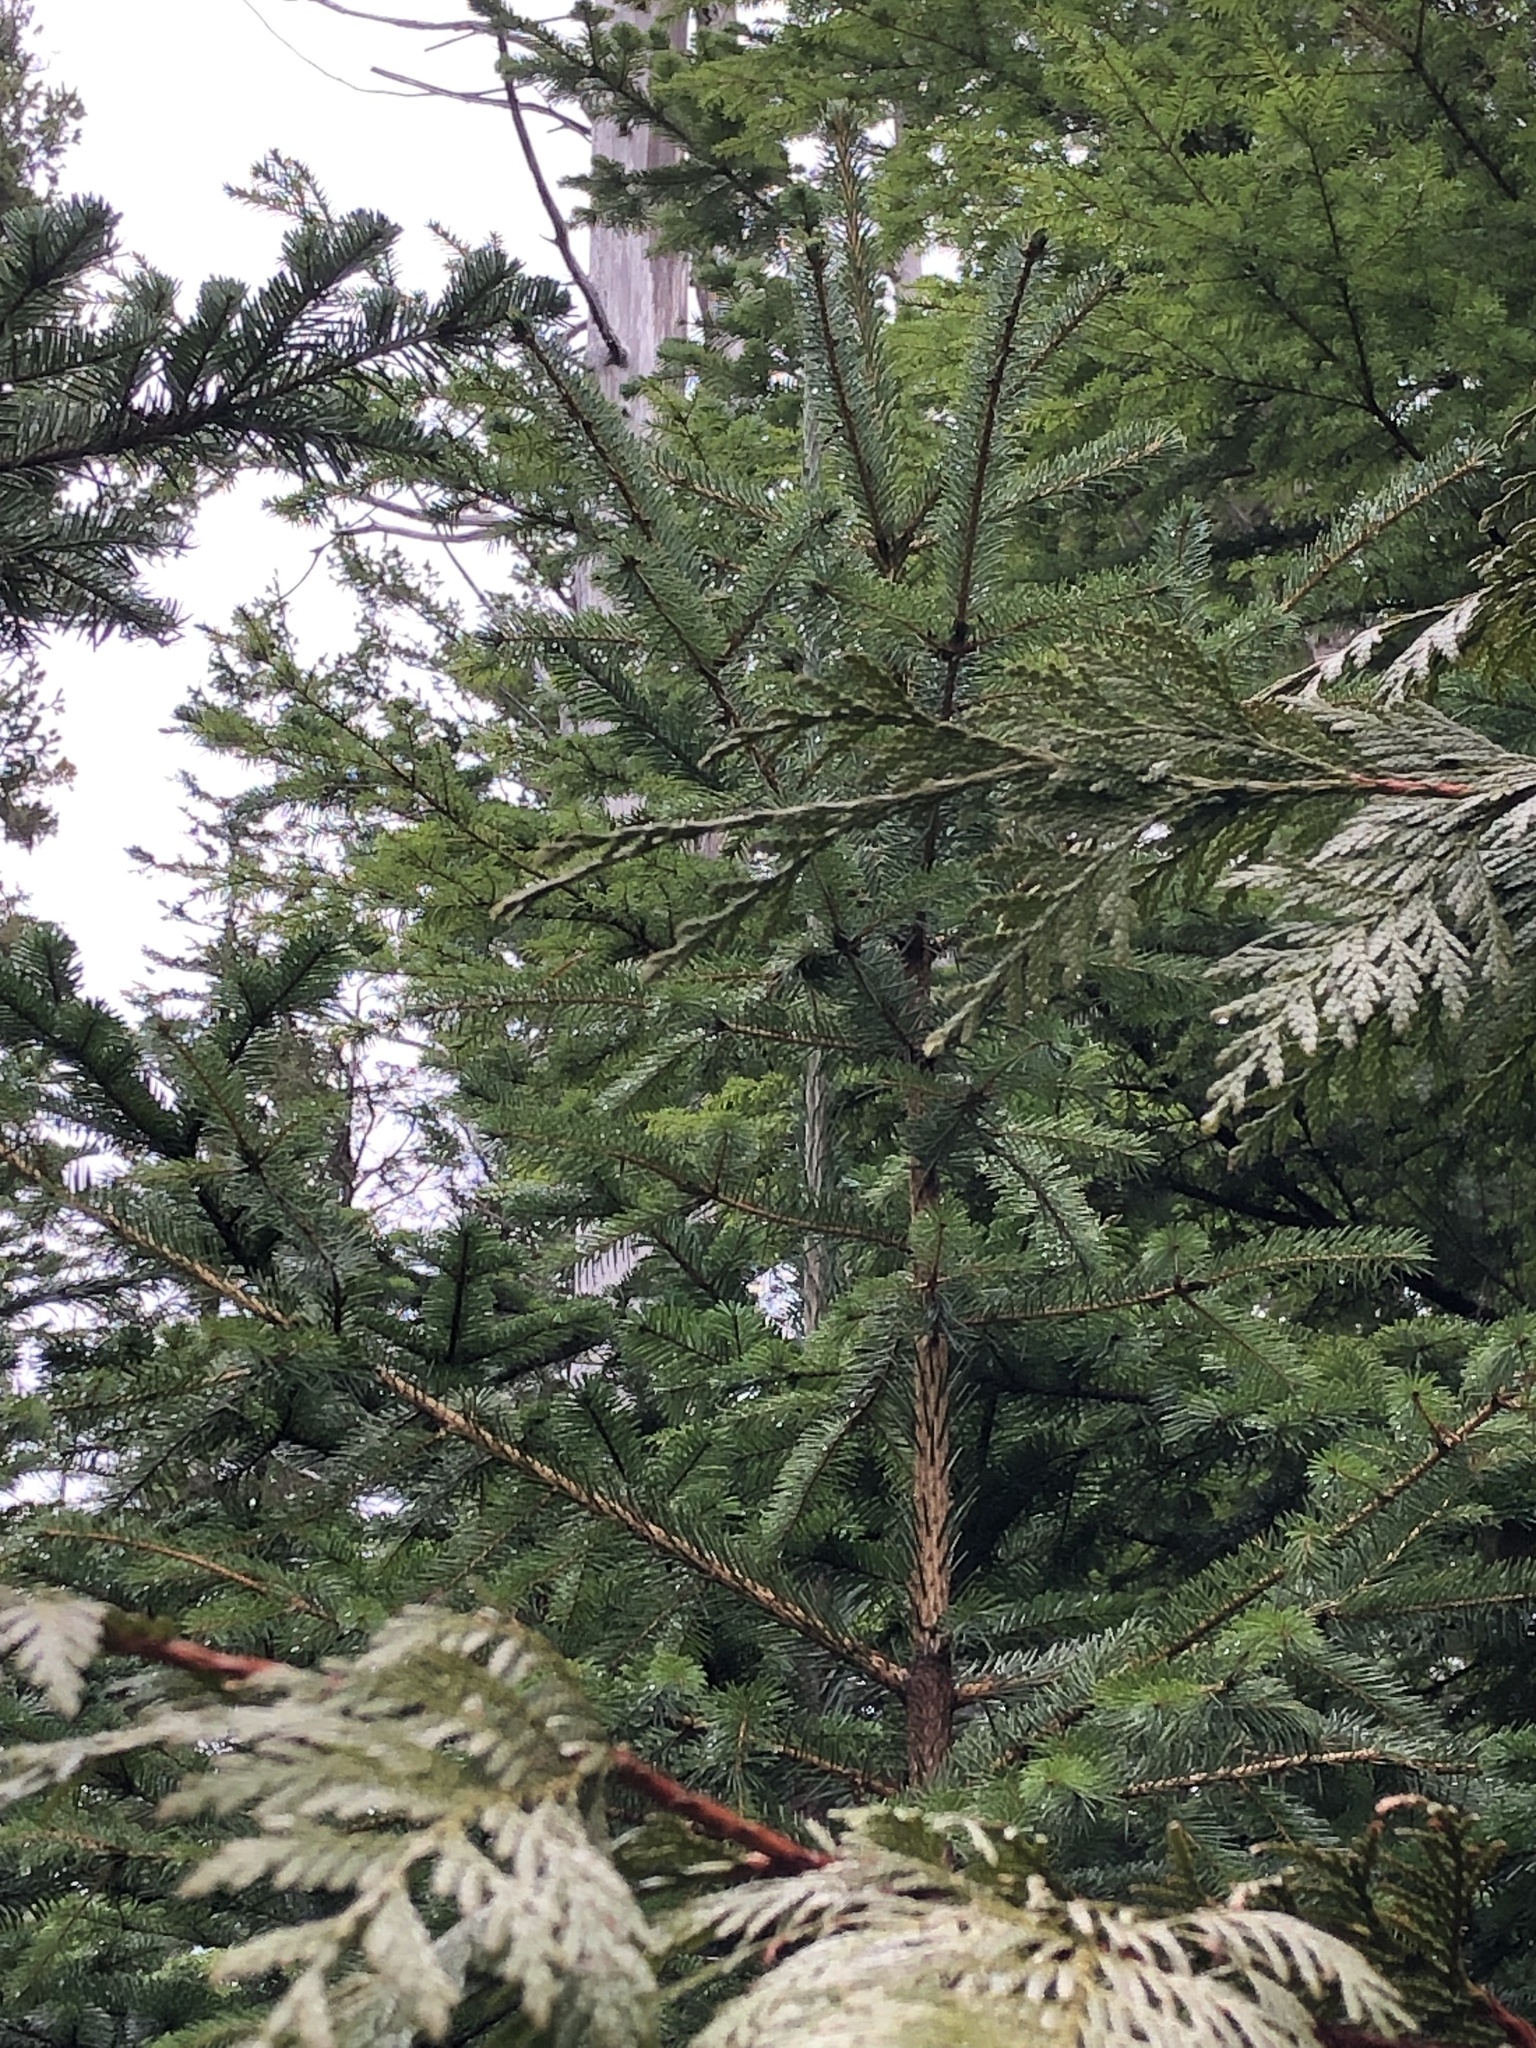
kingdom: Plantae
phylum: Tracheophyta
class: Pinopsida
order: Pinales
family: Pinaceae
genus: Picea
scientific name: Picea sitchensis
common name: Sitka spruce
